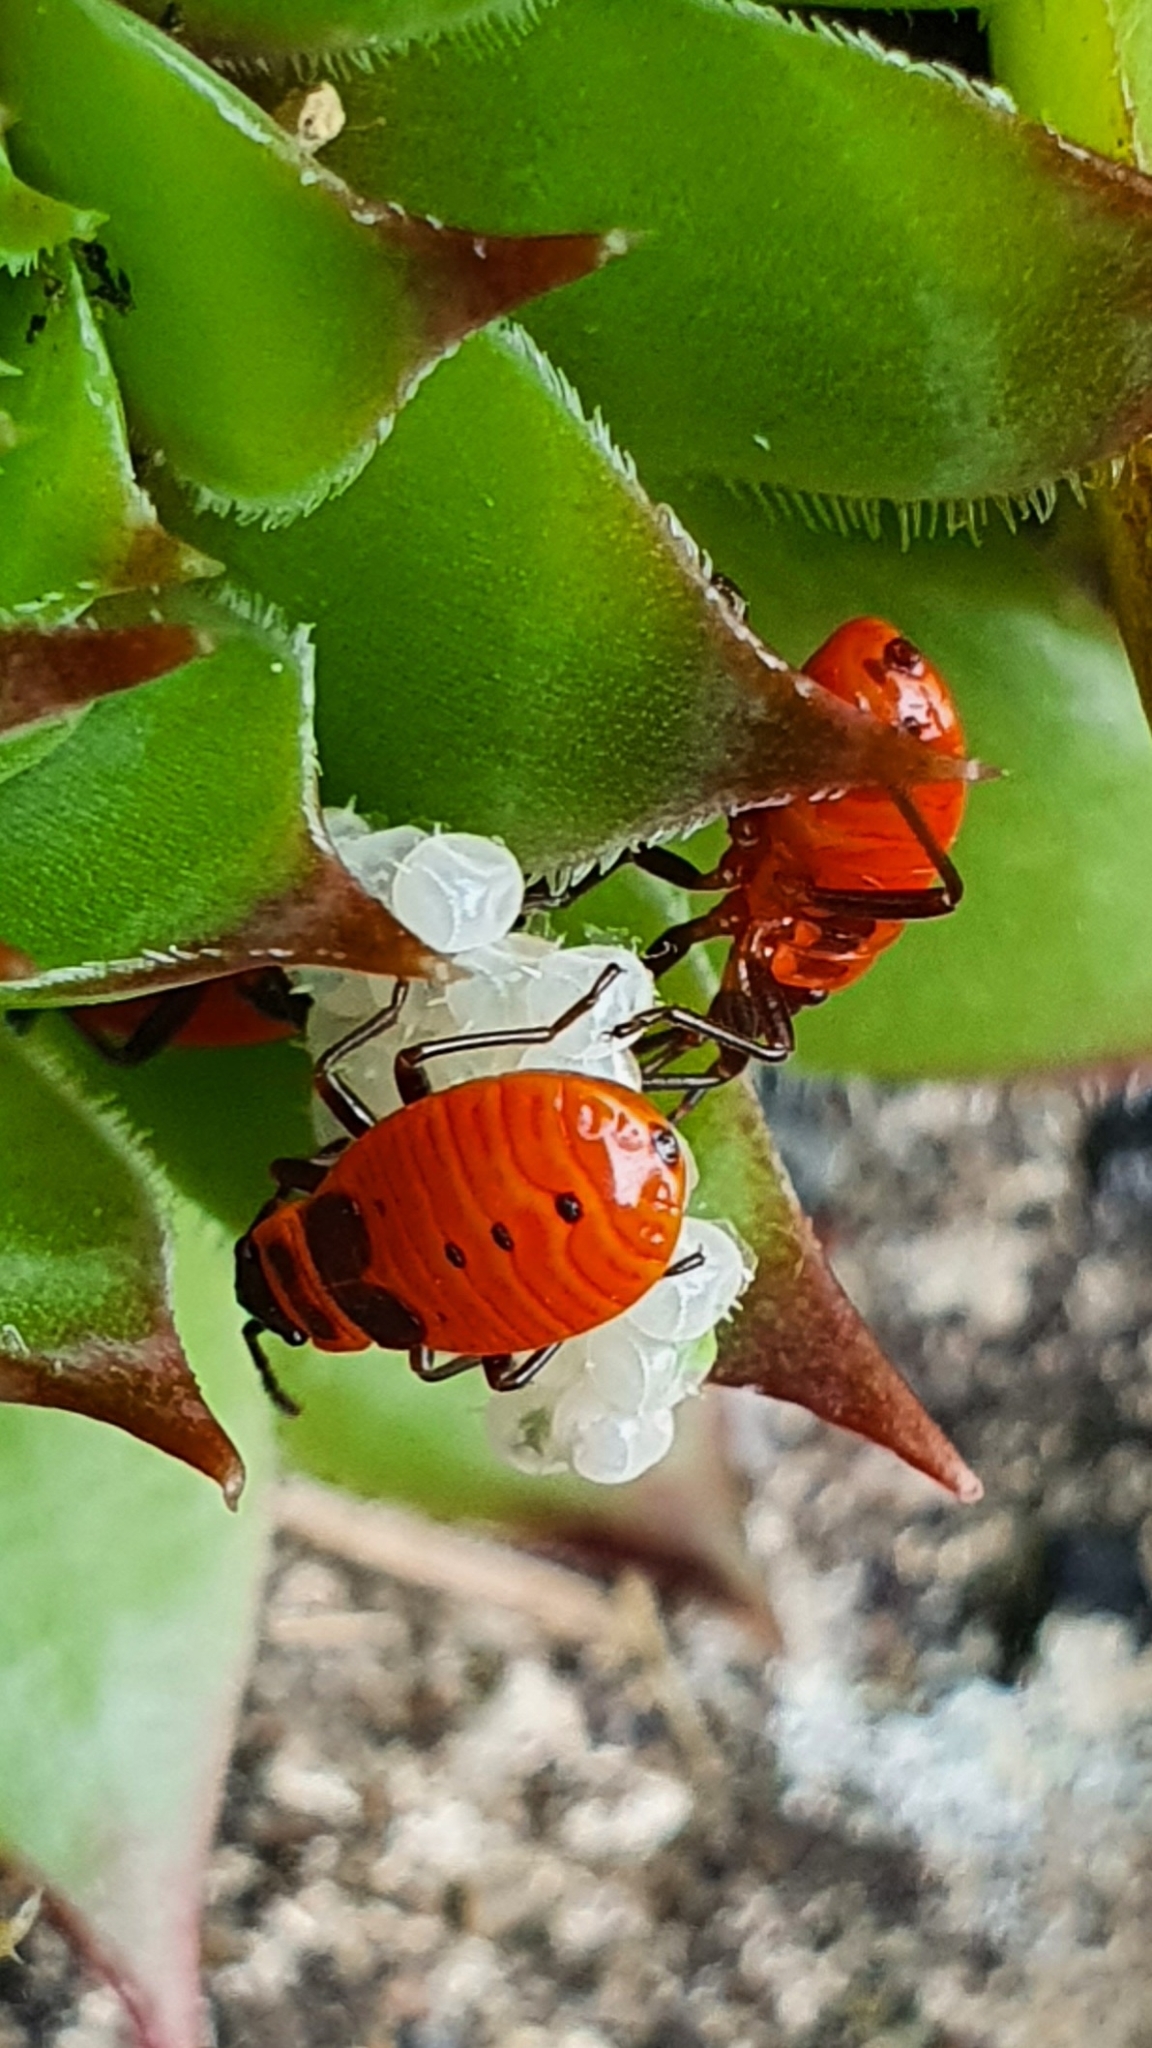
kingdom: Animalia
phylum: Arthropoda
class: Insecta
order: Hemiptera
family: Pyrrhocoridae
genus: Pyrrhocoris
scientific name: Pyrrhocoris apterus
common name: Firebug
